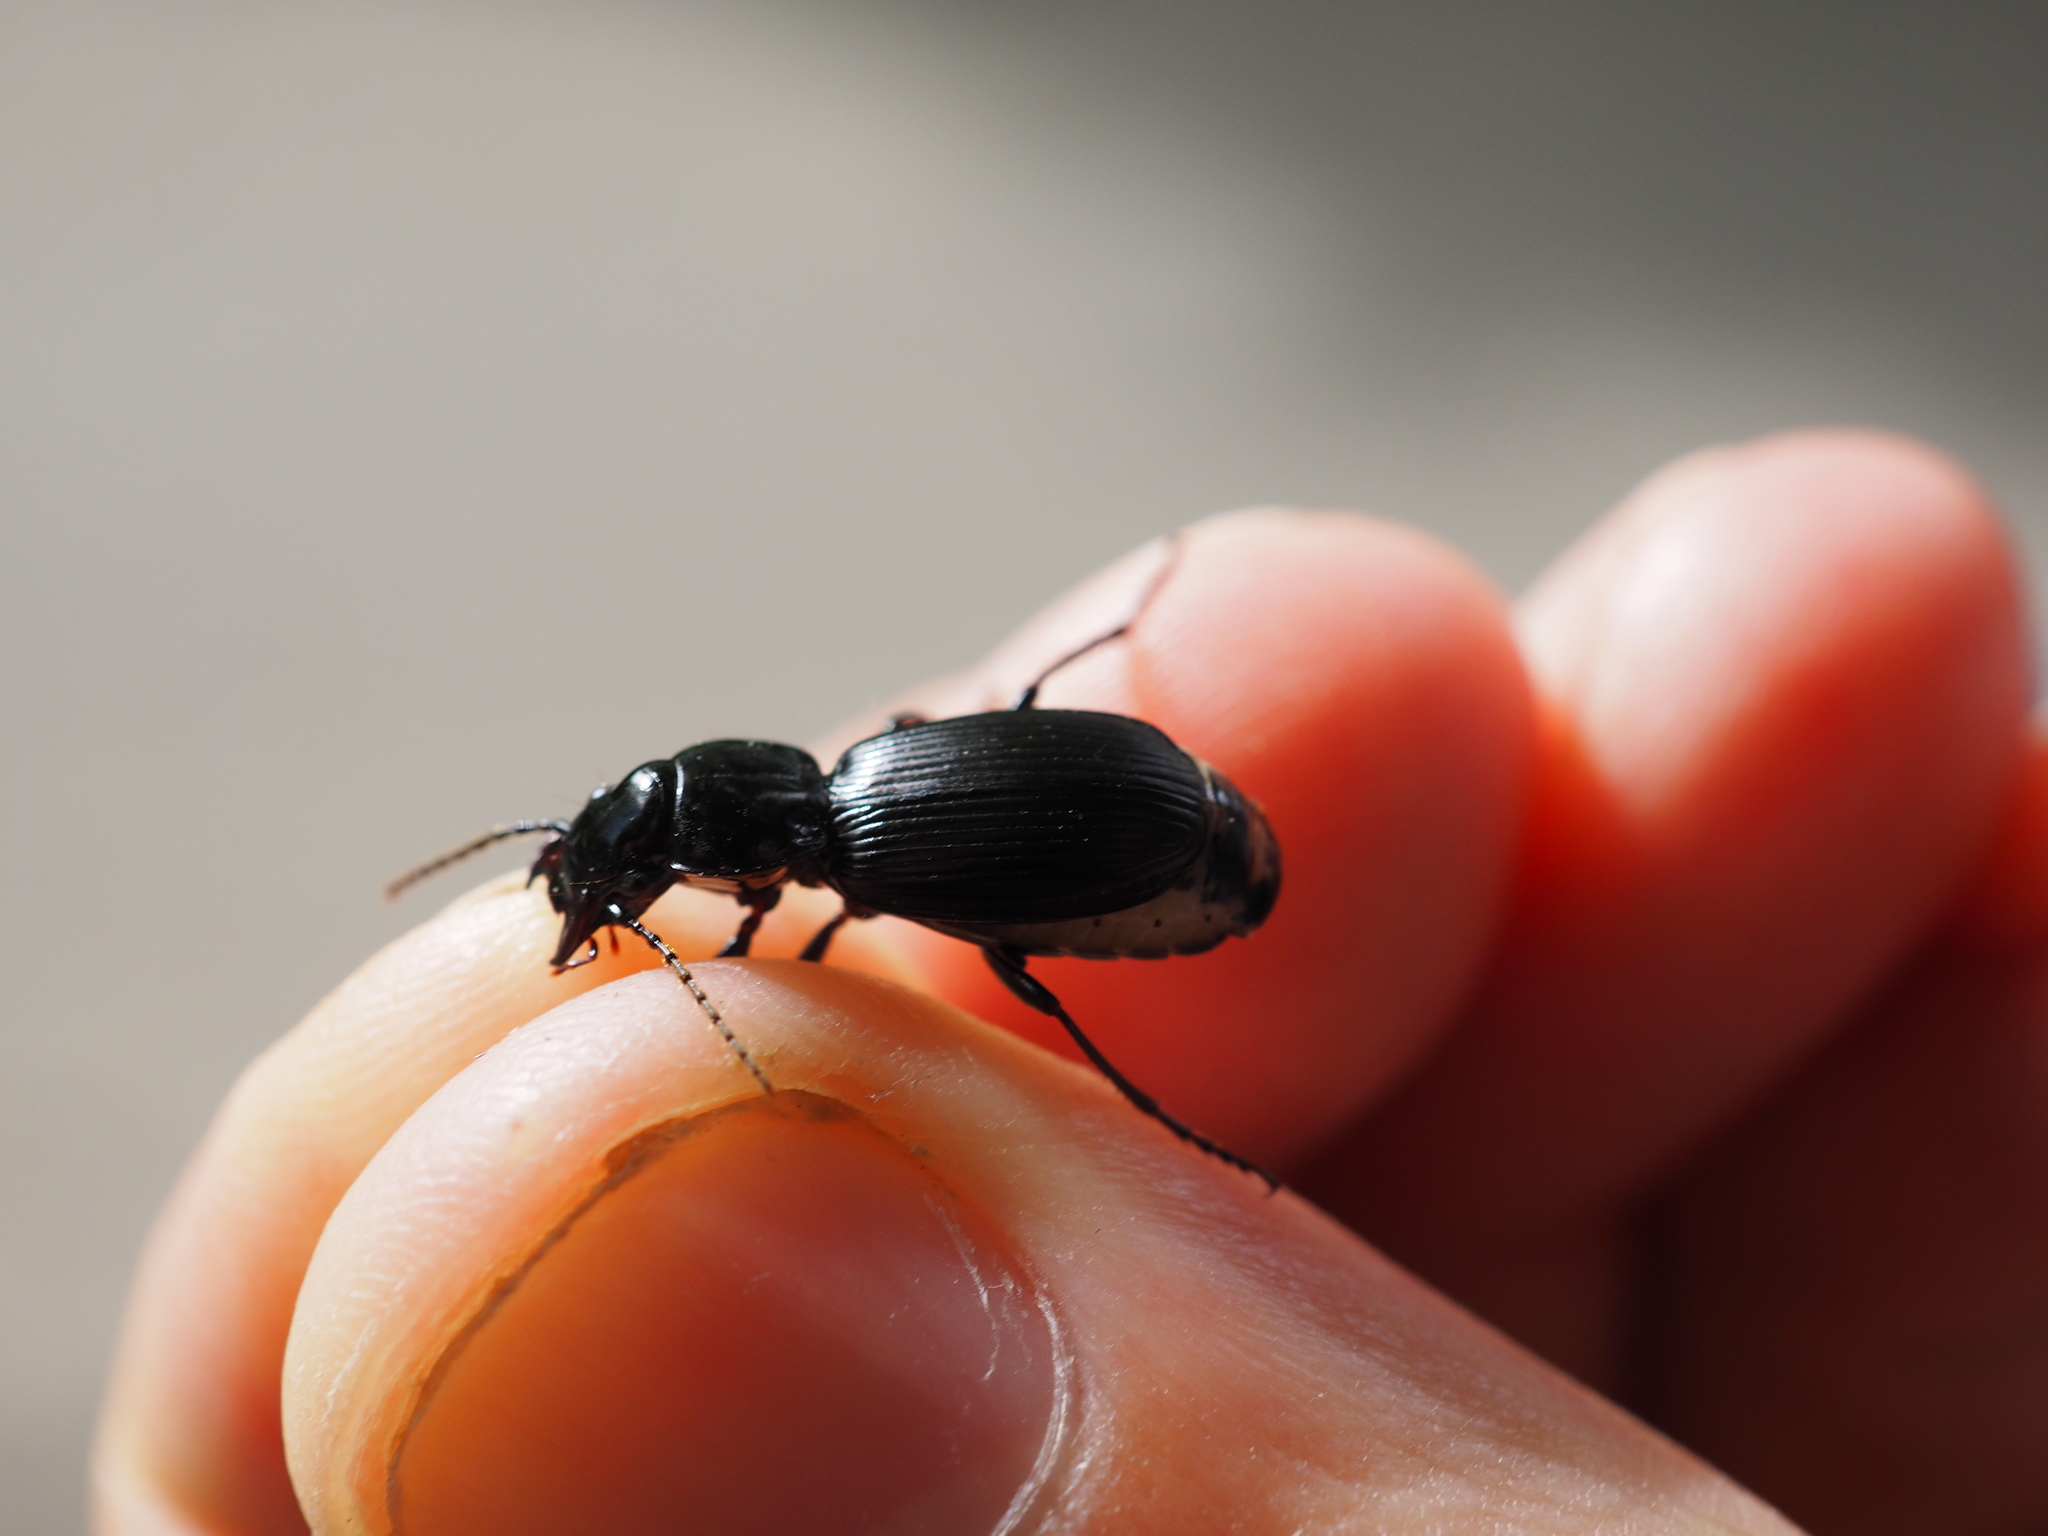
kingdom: Animalia
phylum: Arthropoda
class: Insecta
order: Coleoptera
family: Carabidae
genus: Pterostichus
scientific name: Pterostichus madidus
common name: Black clock
